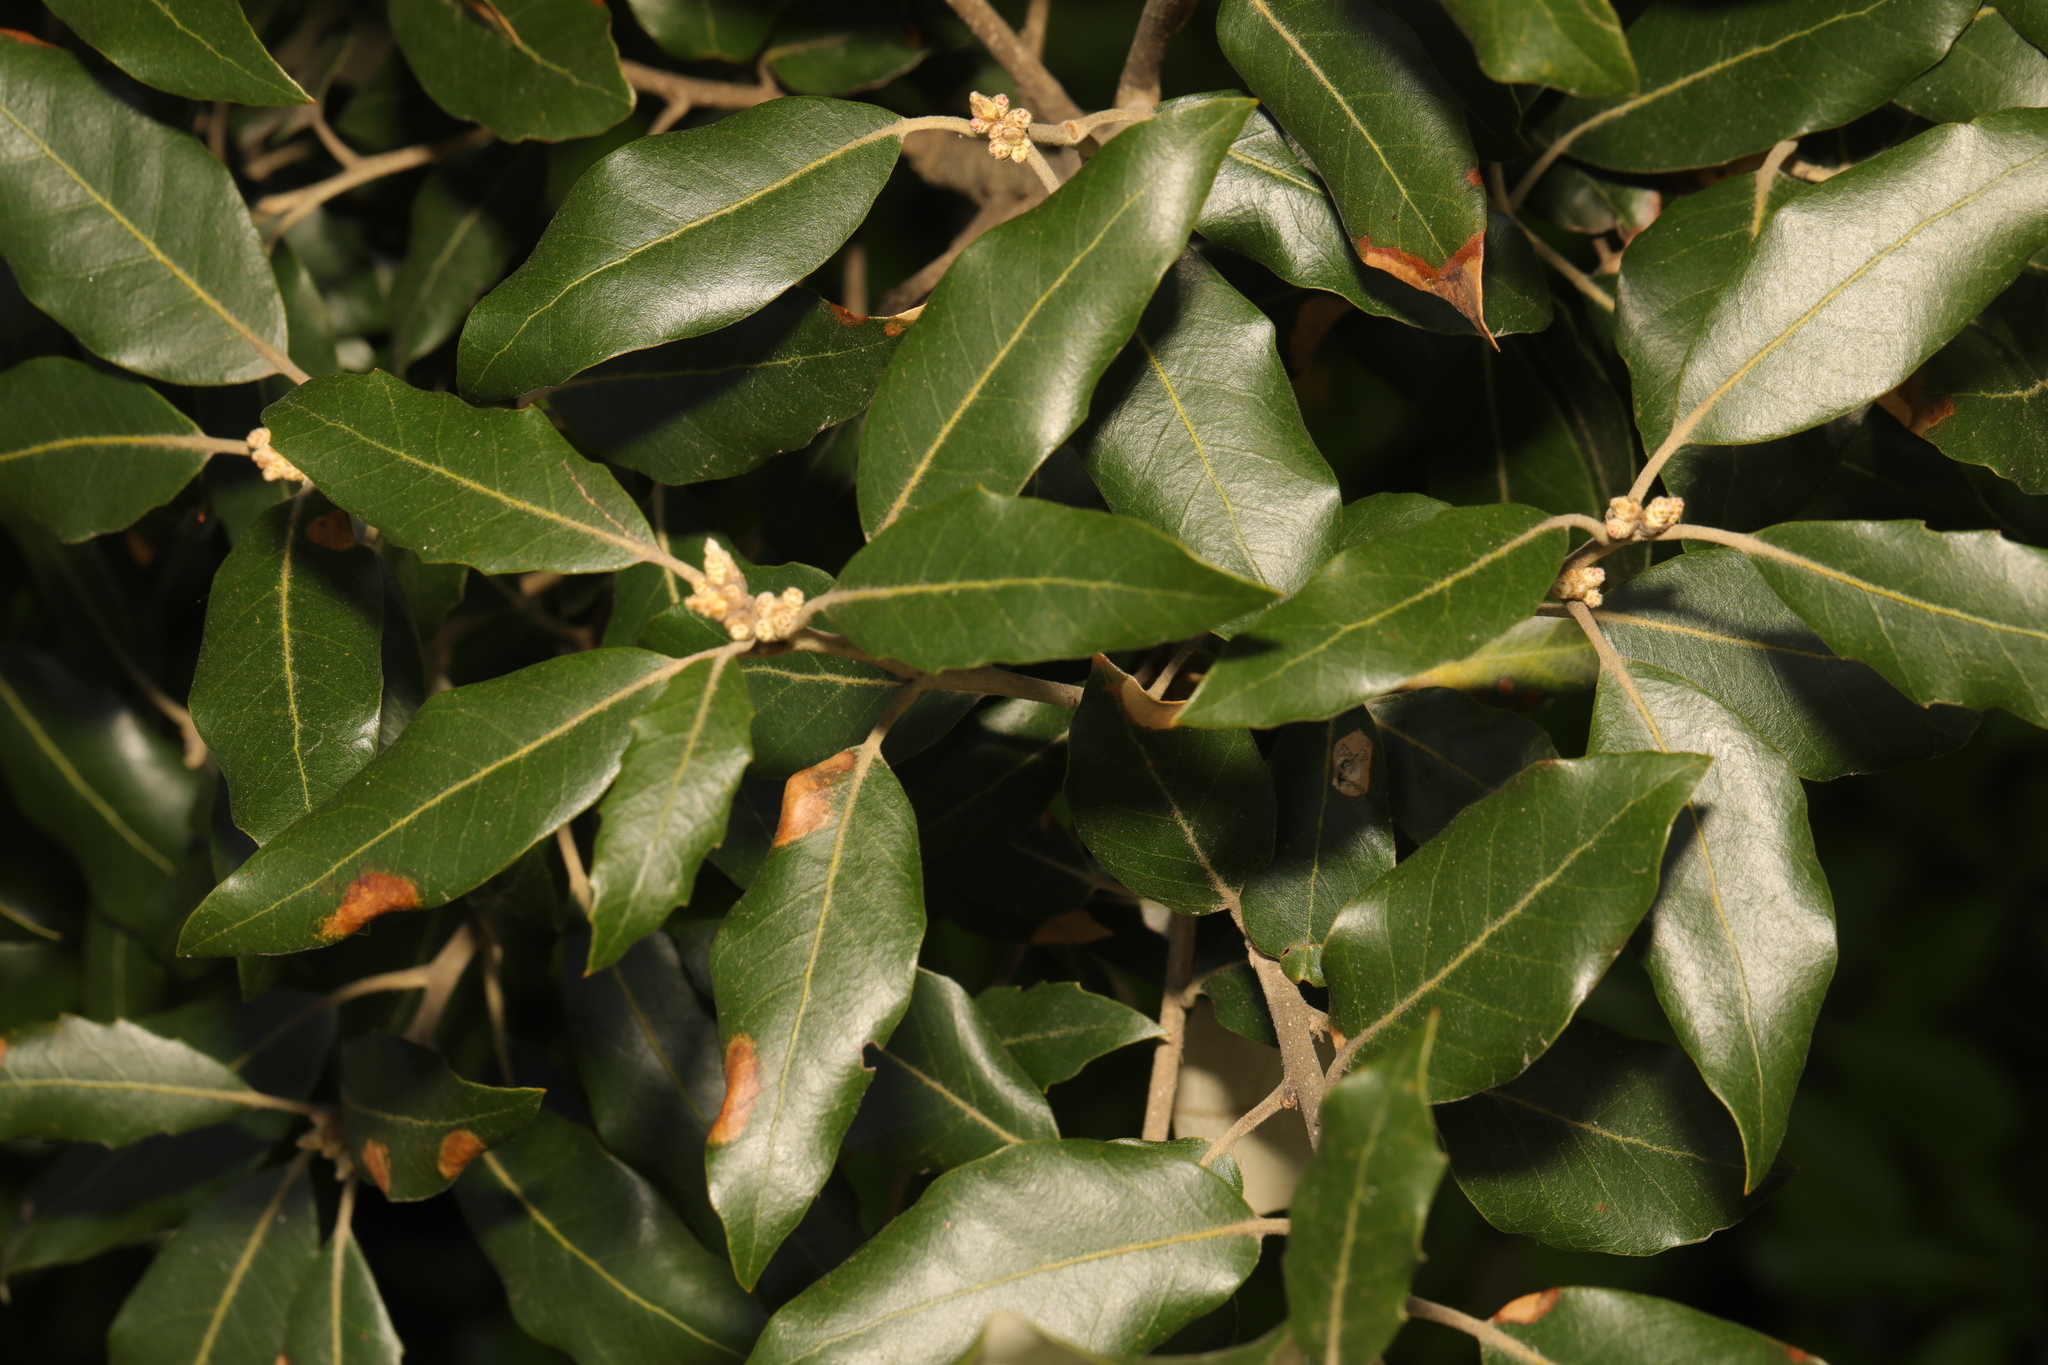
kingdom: Plantae
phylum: Tracheophyta
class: Magnoliopsida
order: Fagales
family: Fagaceae
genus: Quercus
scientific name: Quercus ilex
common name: Evergreen oak
